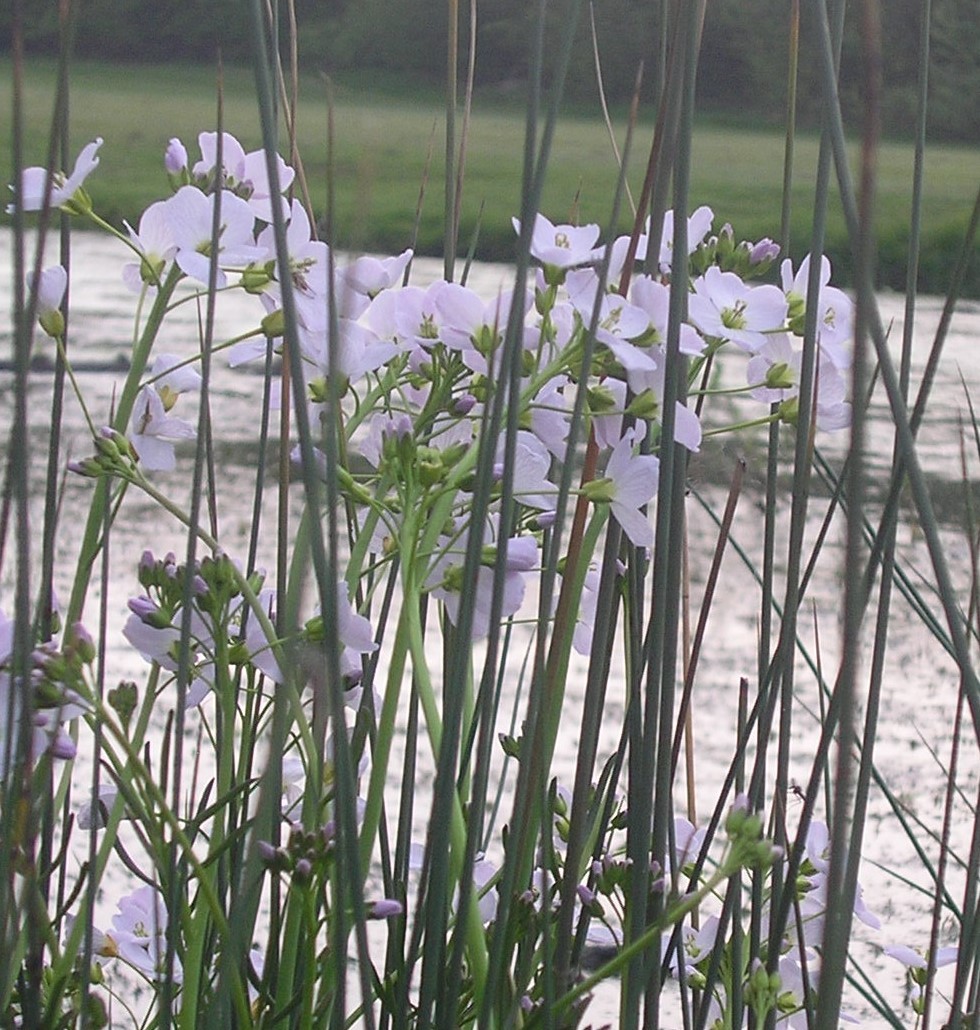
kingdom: Plantae
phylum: Tracheophyta
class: Magnoliopsida
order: Brassicales
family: Brassicaceae
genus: Cardamine
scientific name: Cardamine pratensis
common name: Cuckoo flower
